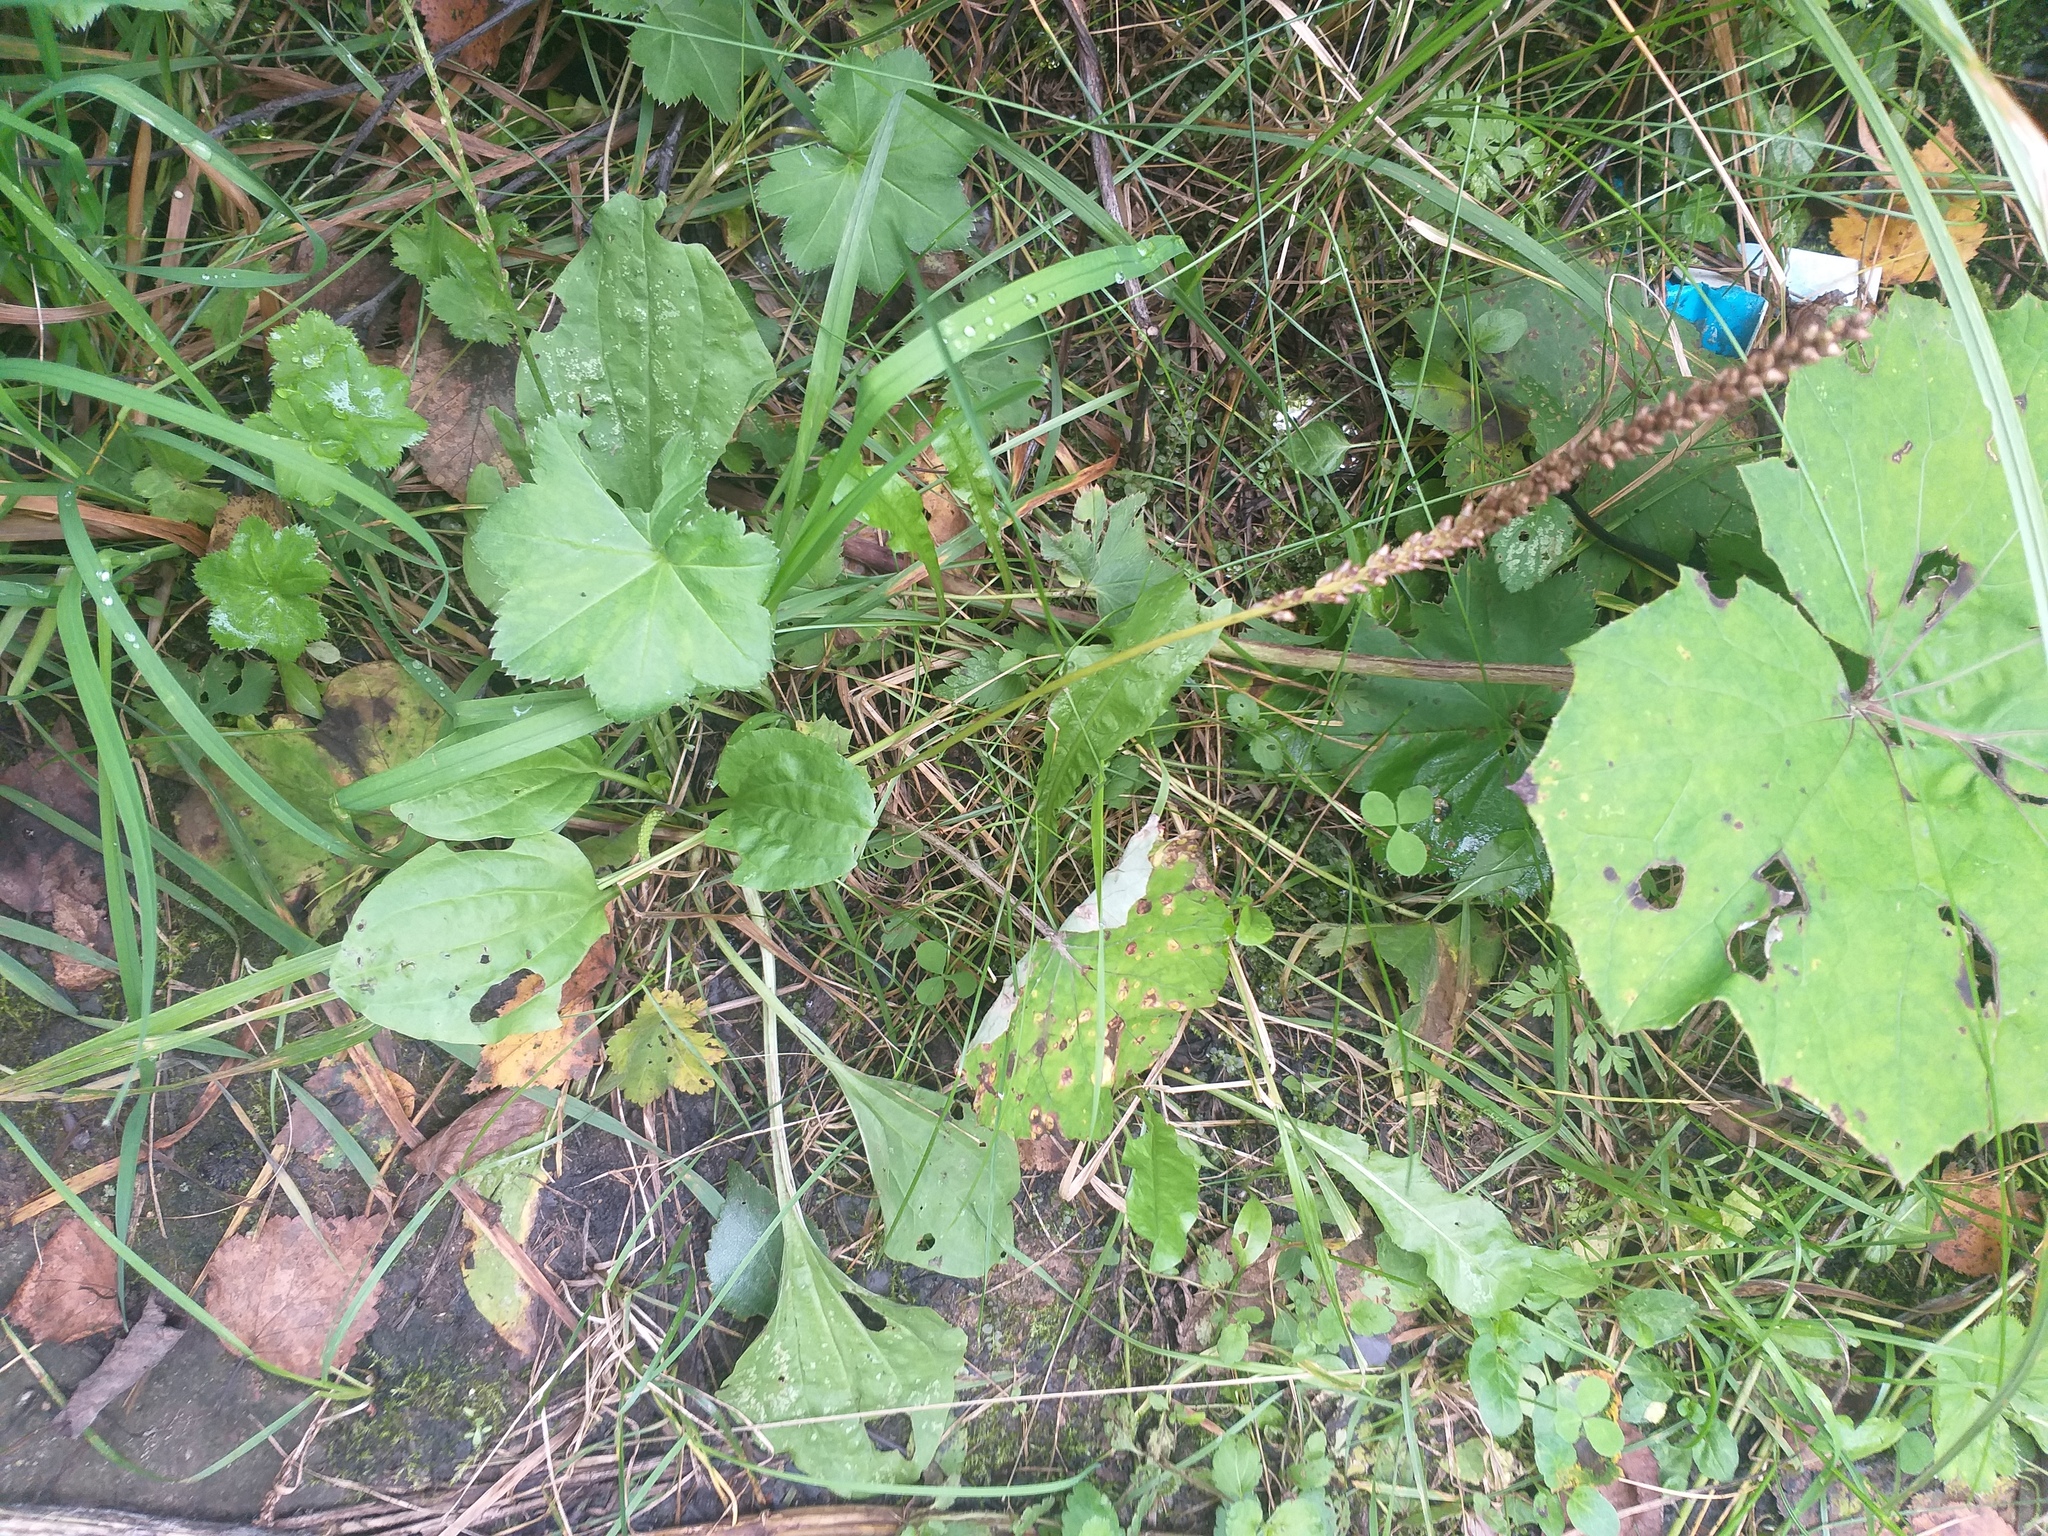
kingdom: Plantae
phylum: Tracheophyta
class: Magnoliopsida
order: Lamiales
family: Plantaginaceae
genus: Plantago
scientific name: Plantago major
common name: Common plantain
